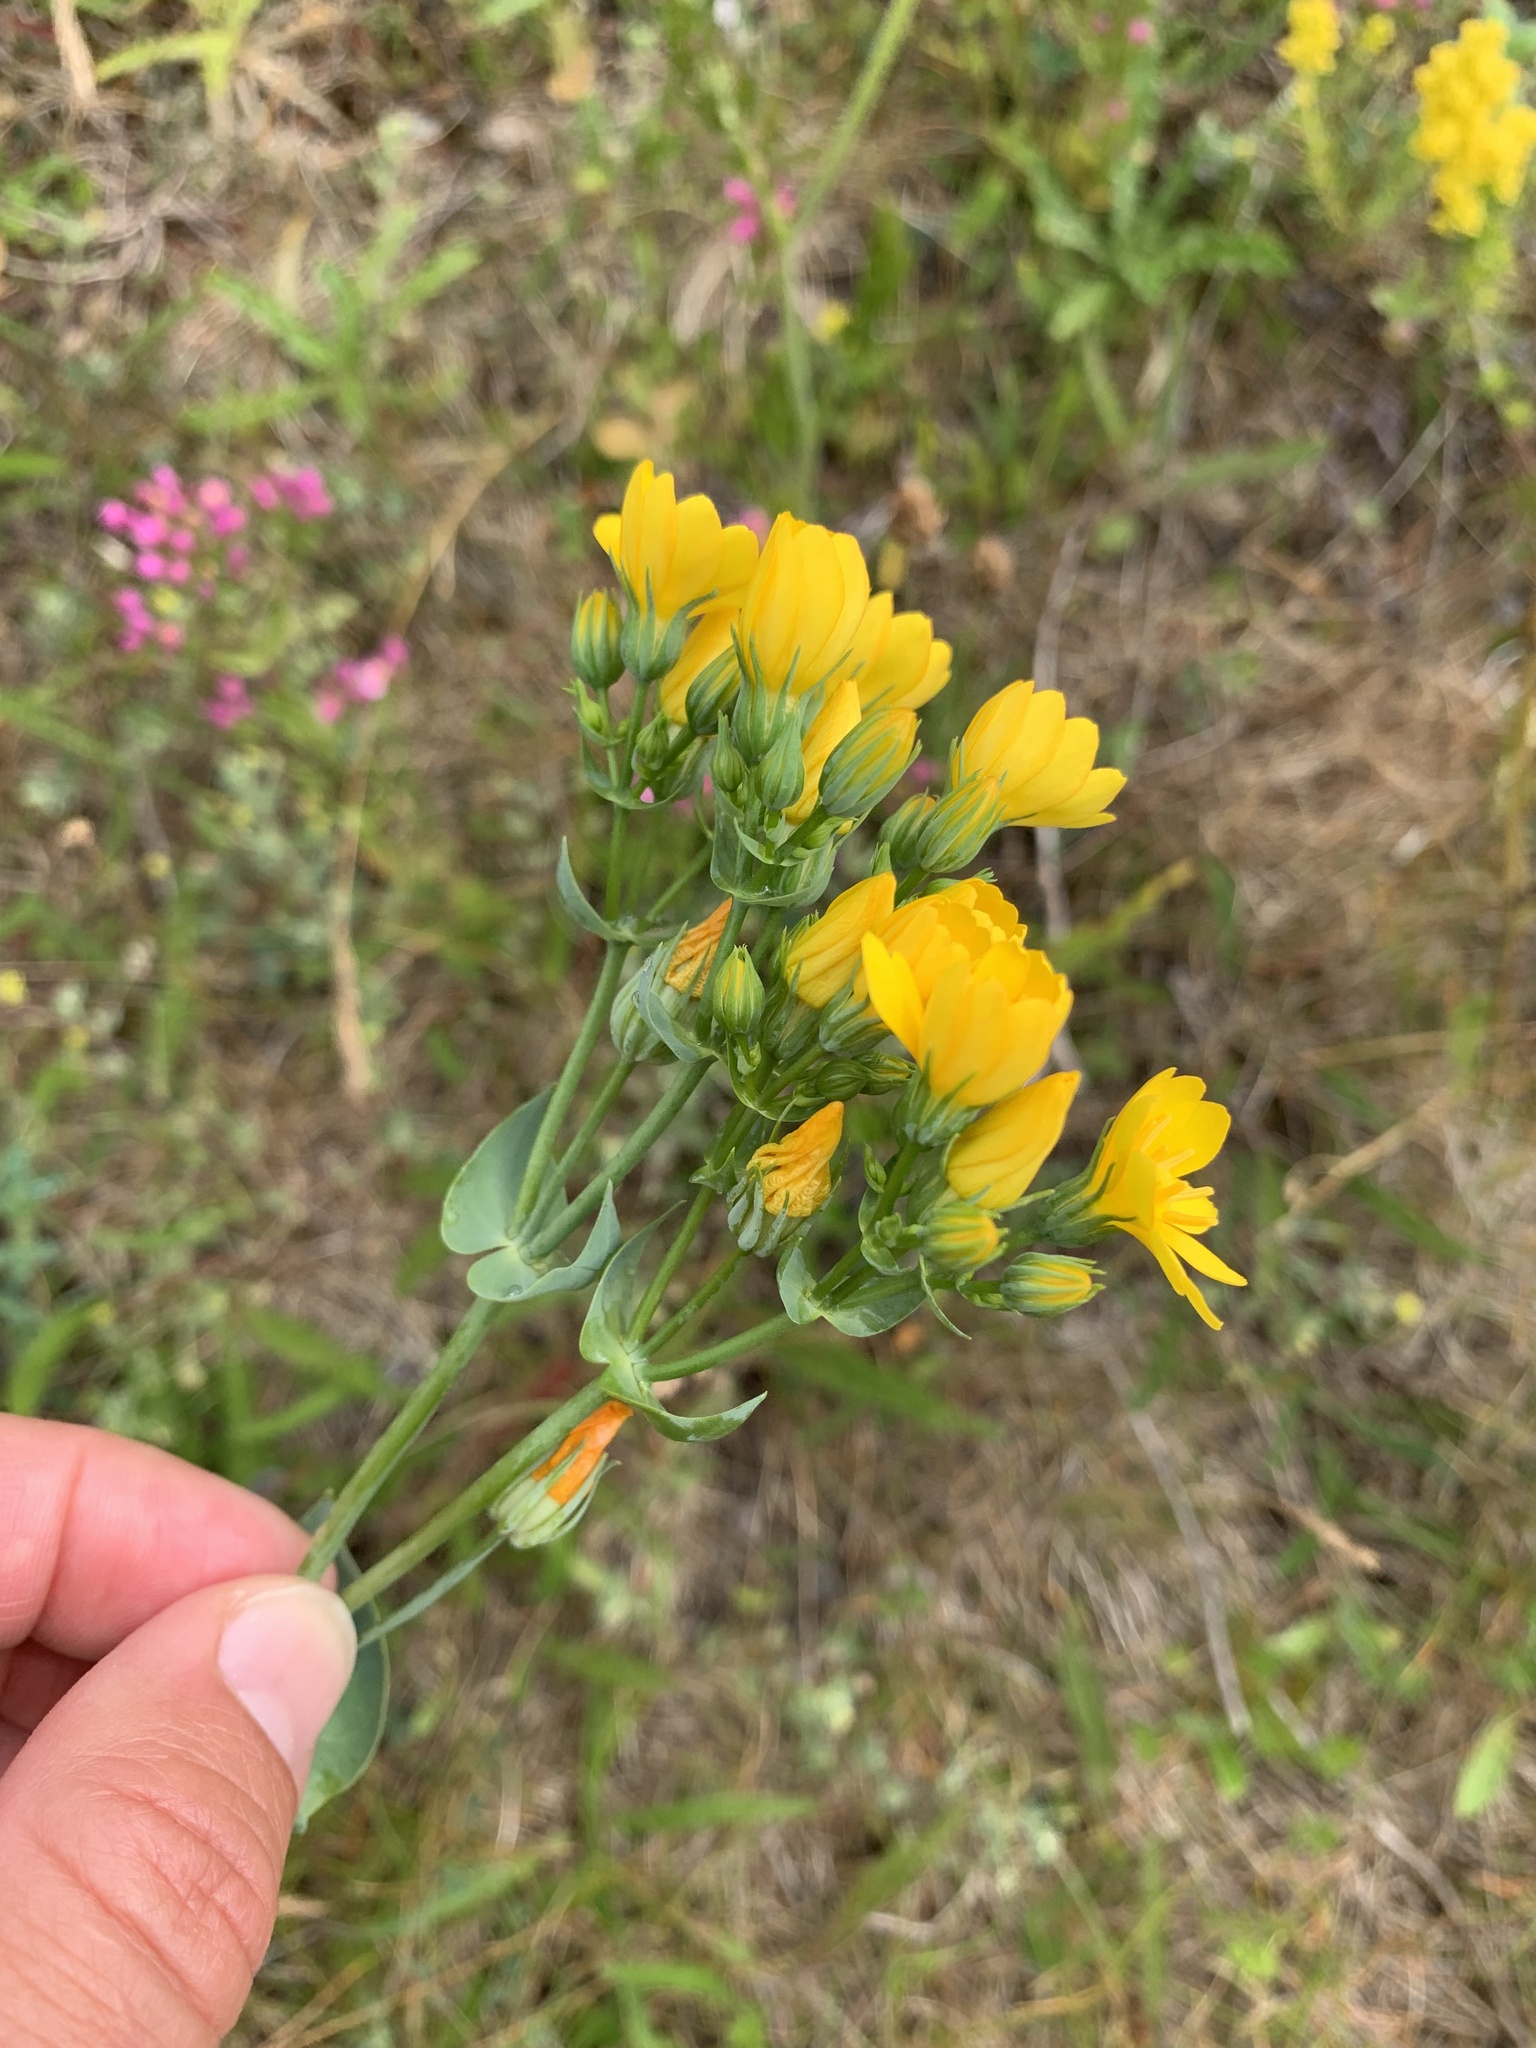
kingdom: Plantae
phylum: Tracheophyta
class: Magnoliopsida
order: Gentianales
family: Gentianaceae
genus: Blackstonia
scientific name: Blackstonia acuminata
